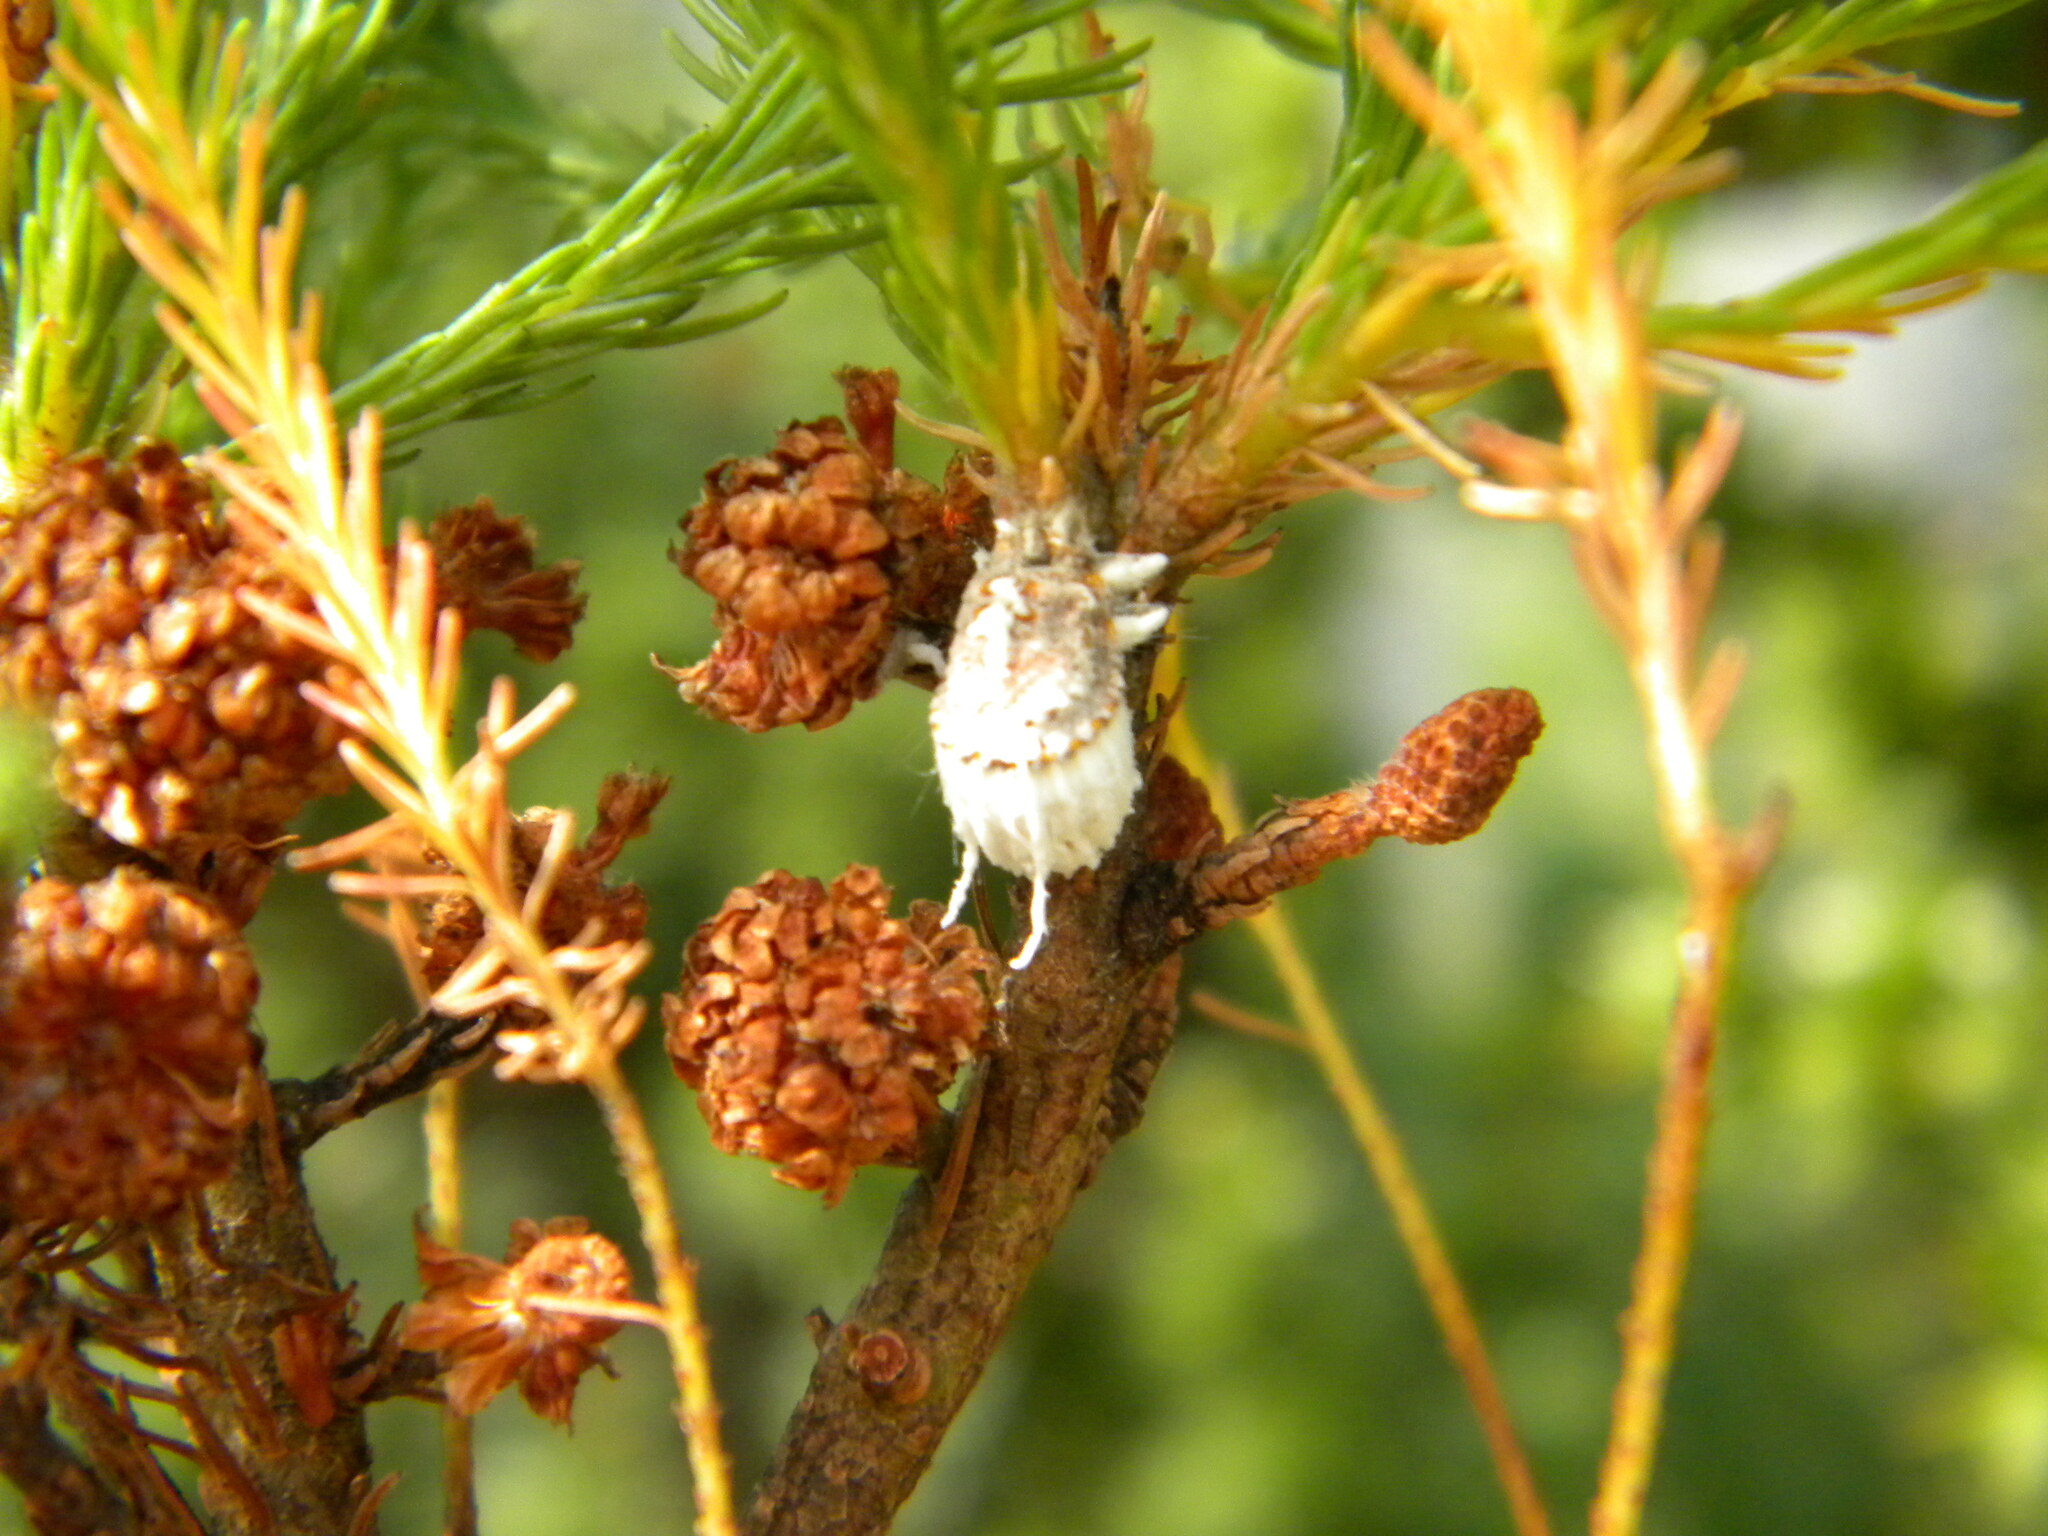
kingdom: Animalia
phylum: Arthropoda
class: Insecta
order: Hemiptera
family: Margarodidae
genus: Icerya
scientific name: Icerya purchasi
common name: Cottony cushion scale
